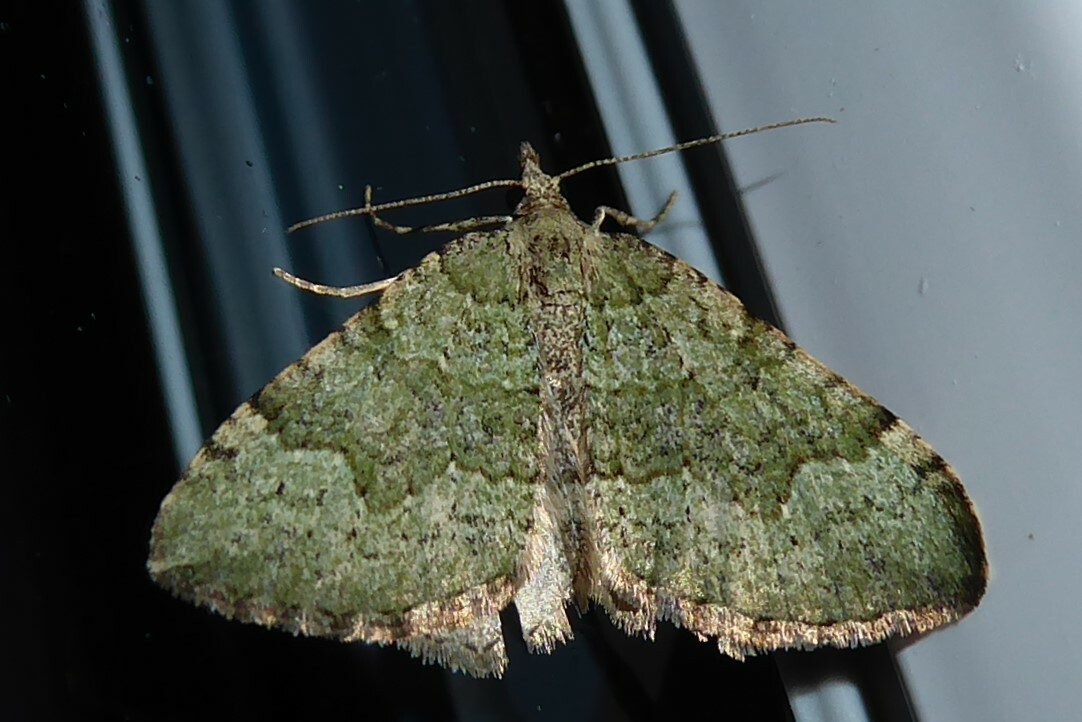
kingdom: Animalia
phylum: Arthropoda
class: Insecta
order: Lepidoptera
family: Geometridae
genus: Epyaxa
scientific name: Epyaxa rosearia
